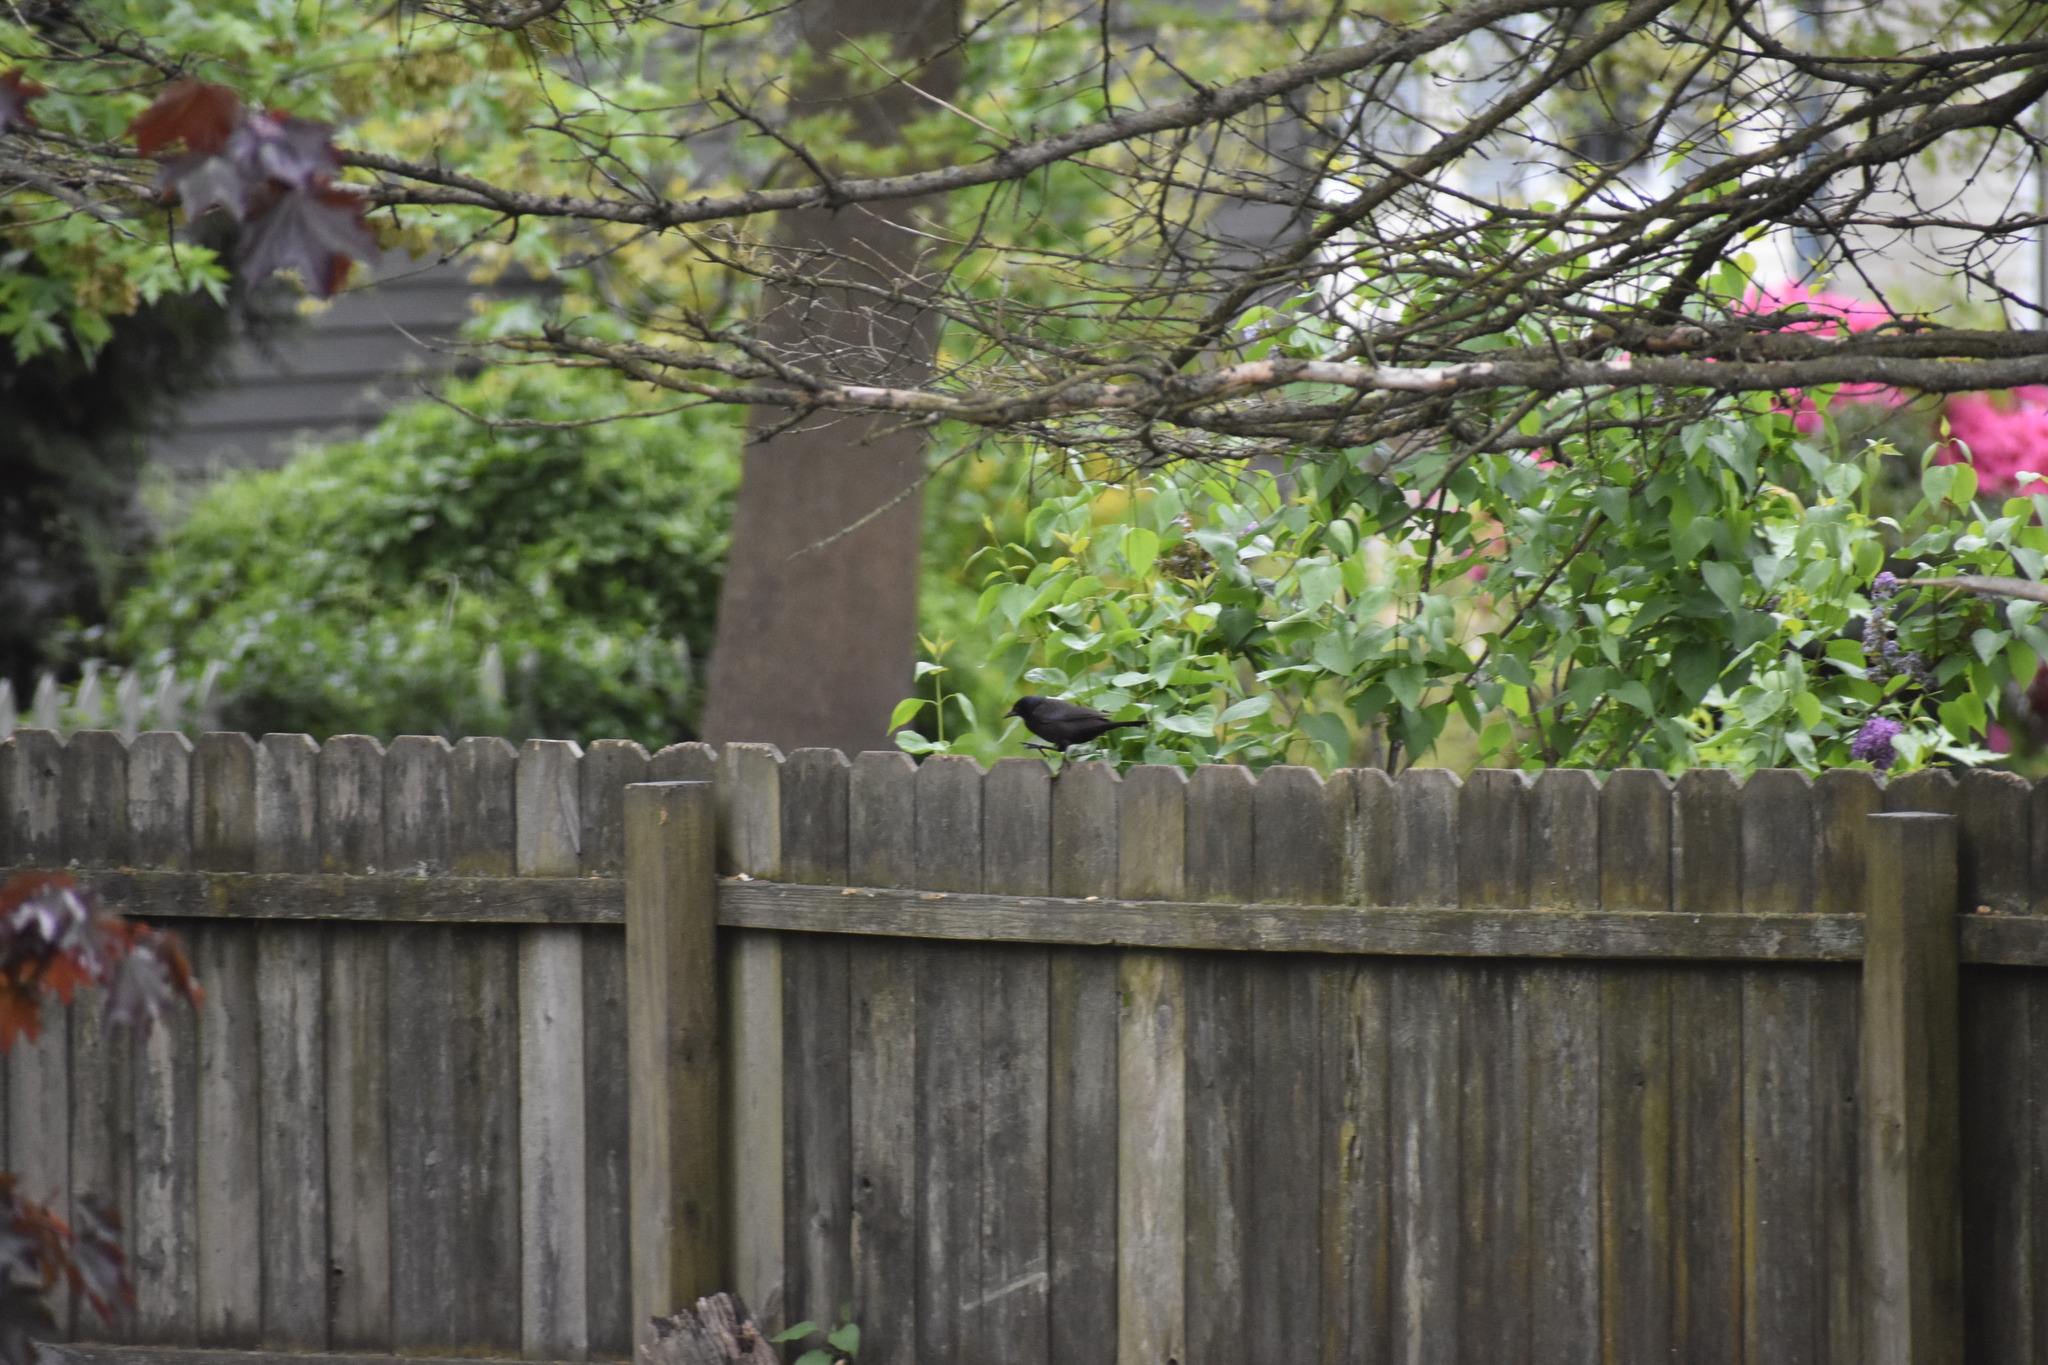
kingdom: Animalia
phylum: Chordata
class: Aves
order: Passeriformes
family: Icteridae
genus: Quiscalus
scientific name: Quiscalus quiscula
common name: Common grackle
